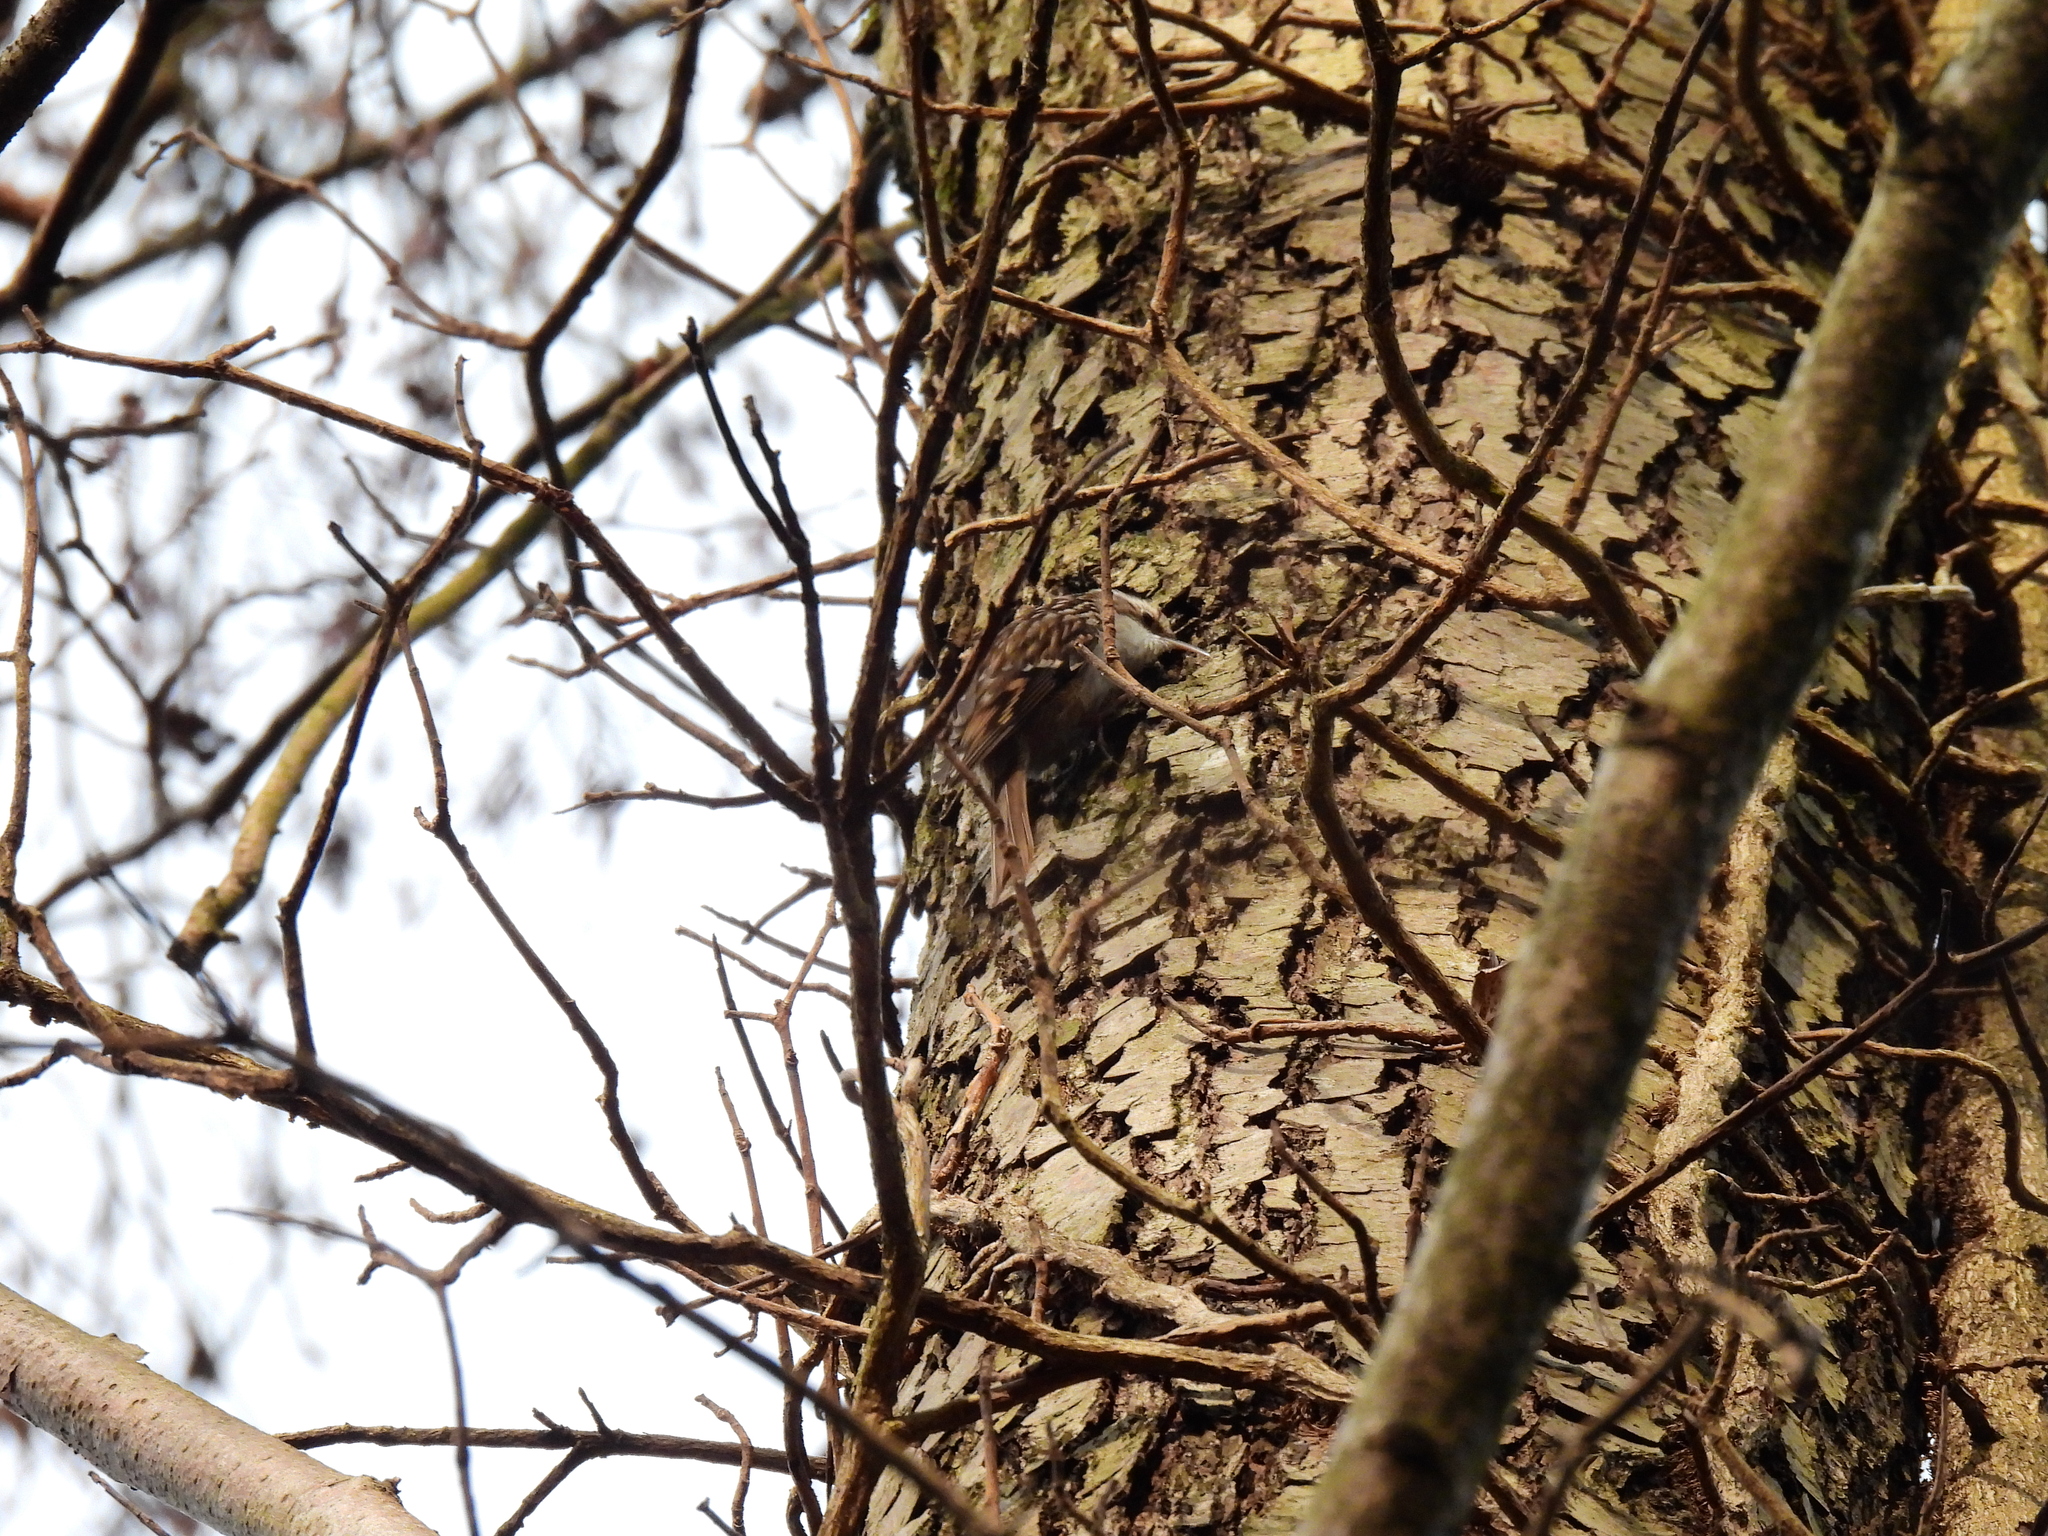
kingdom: Animalia
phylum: Chordata
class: Aves
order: Passeriformes
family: Certhiidae
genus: Certhia
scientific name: Certhia brachydactyla
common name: Short-toed treecreeper
